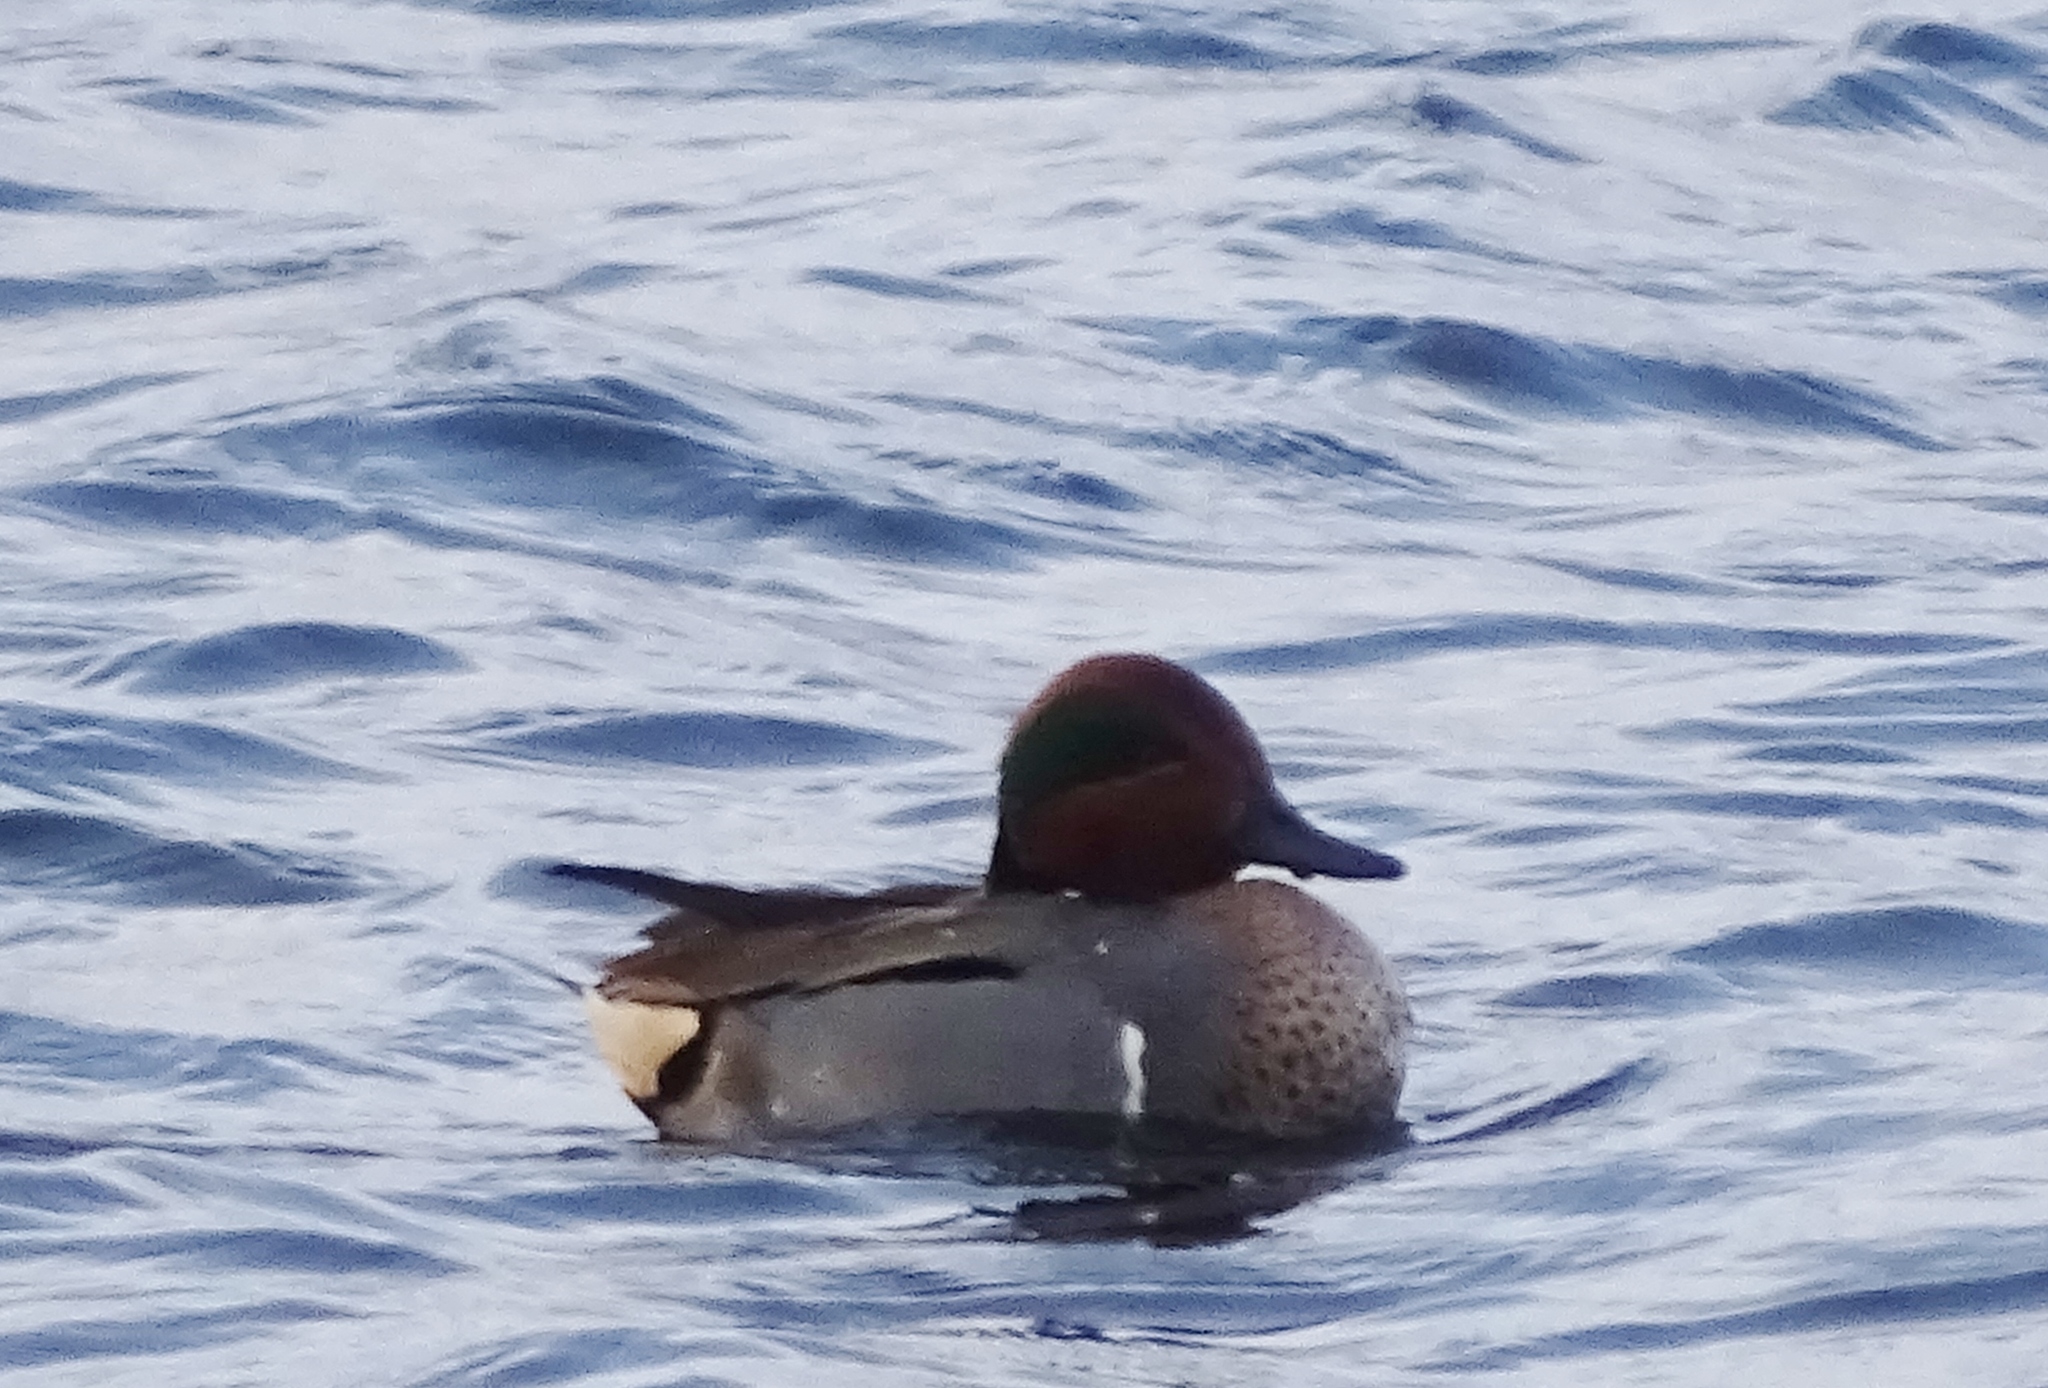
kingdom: Animalia
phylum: Chordata
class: Aves
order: Anseriformes
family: Anatidae
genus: Anas
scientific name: Anas crecca
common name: Eurasian teal
